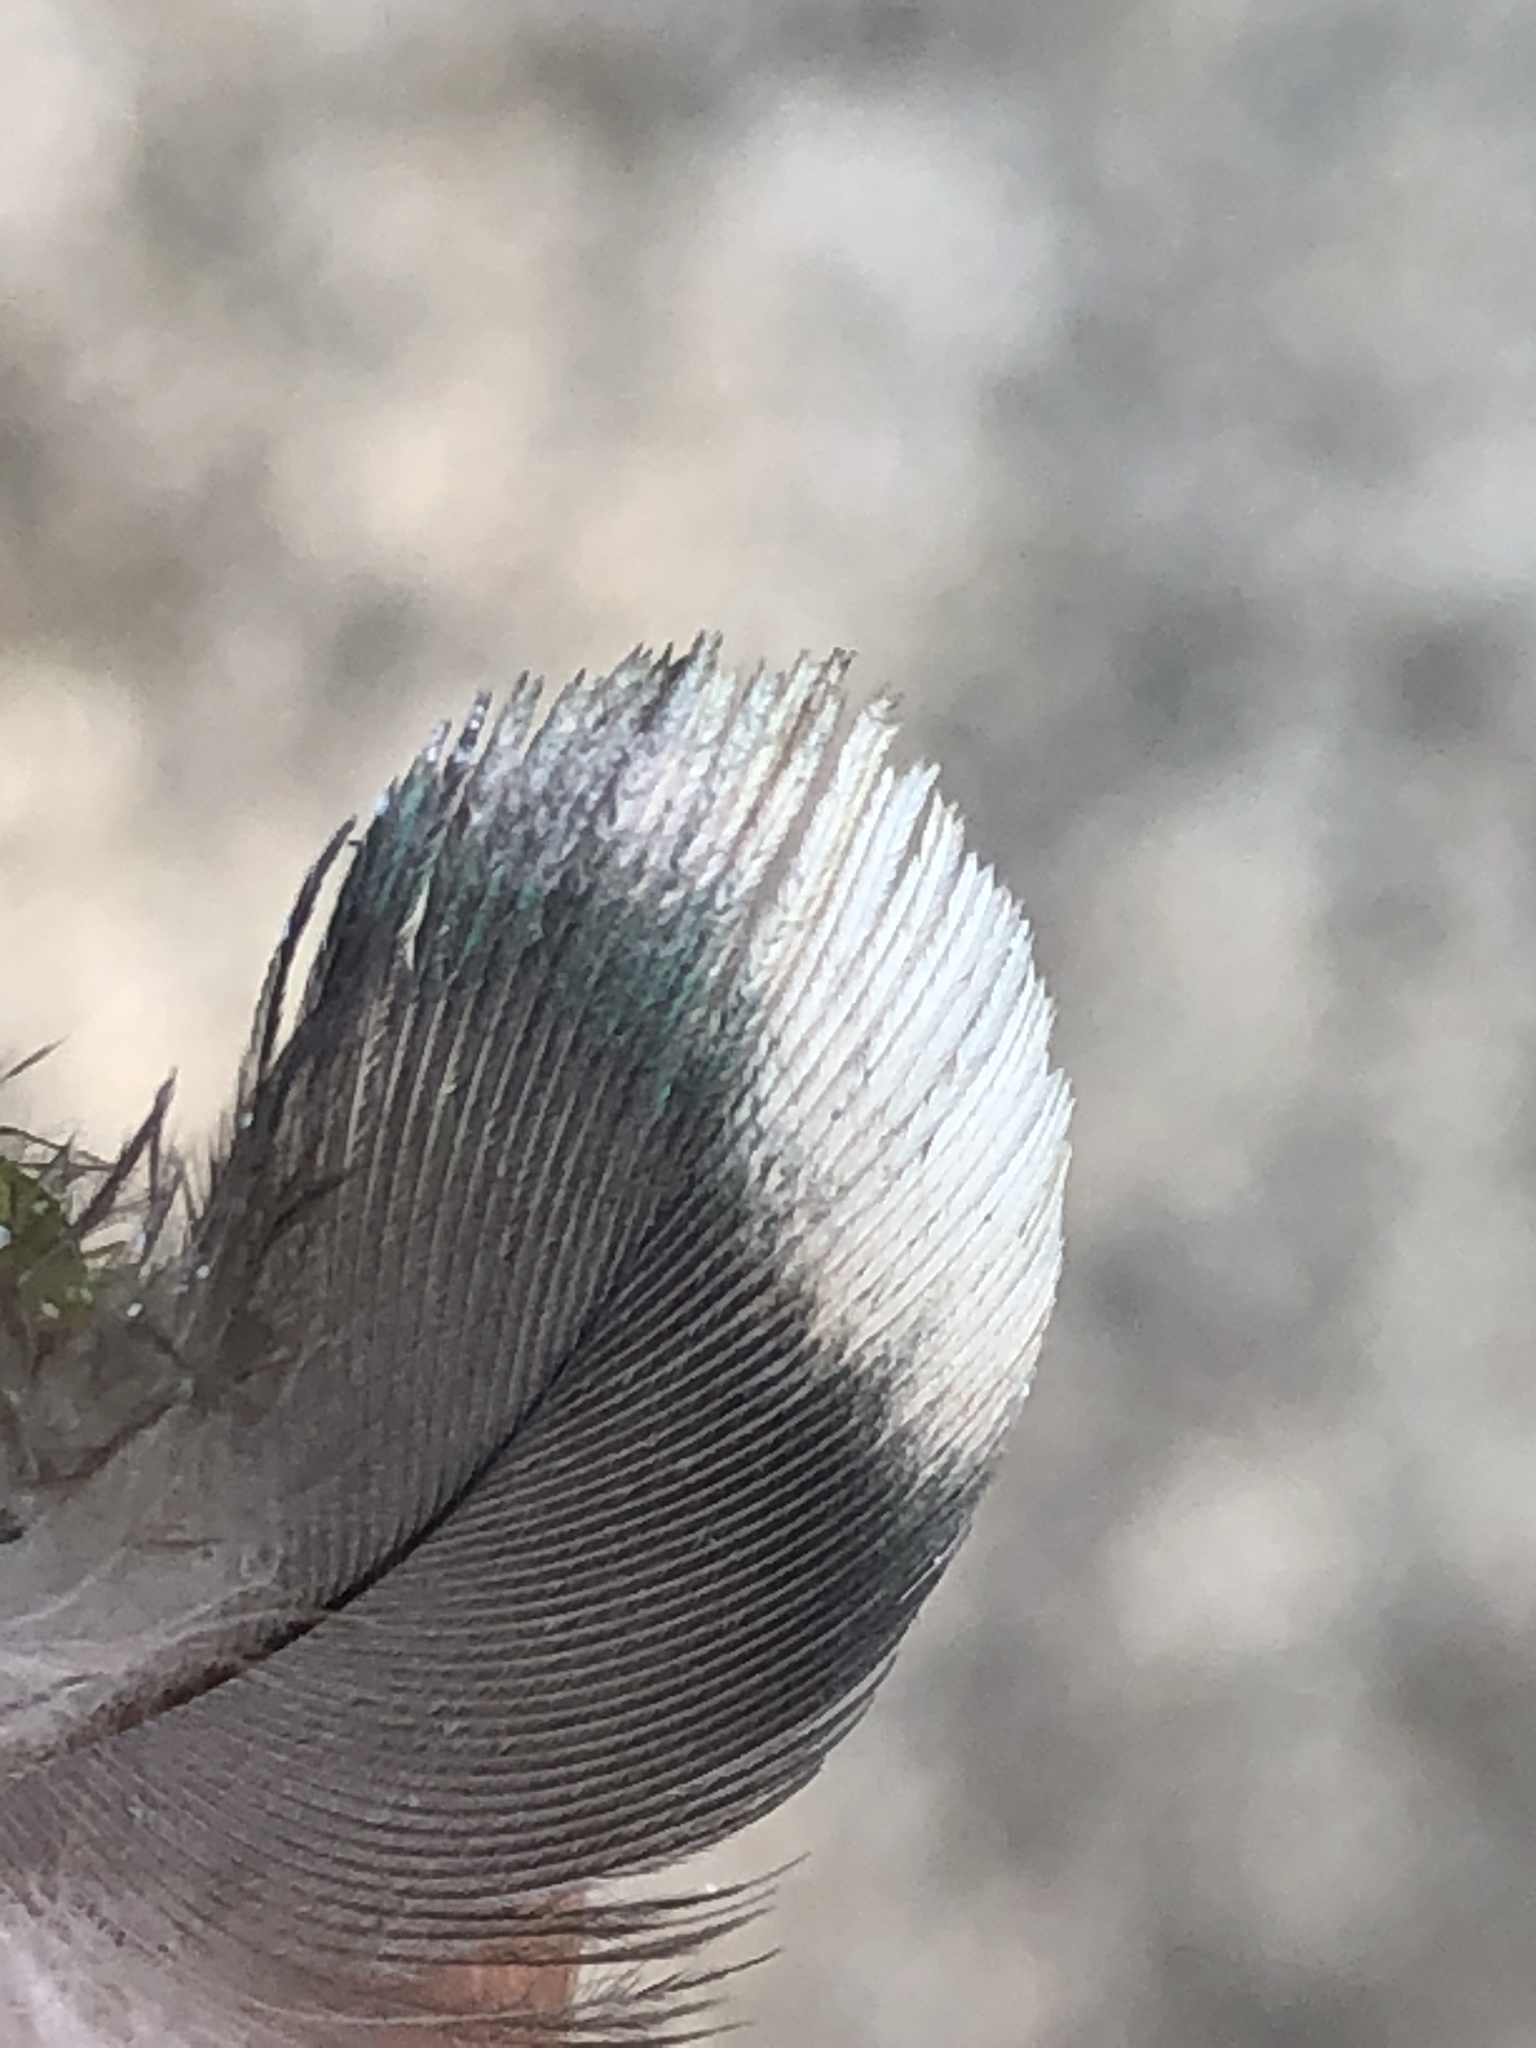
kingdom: Animalia
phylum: Chordata
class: Aves
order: Columbiformes
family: Columbidae
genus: Columba
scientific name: Columba palumbus
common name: Common wood pigeon
